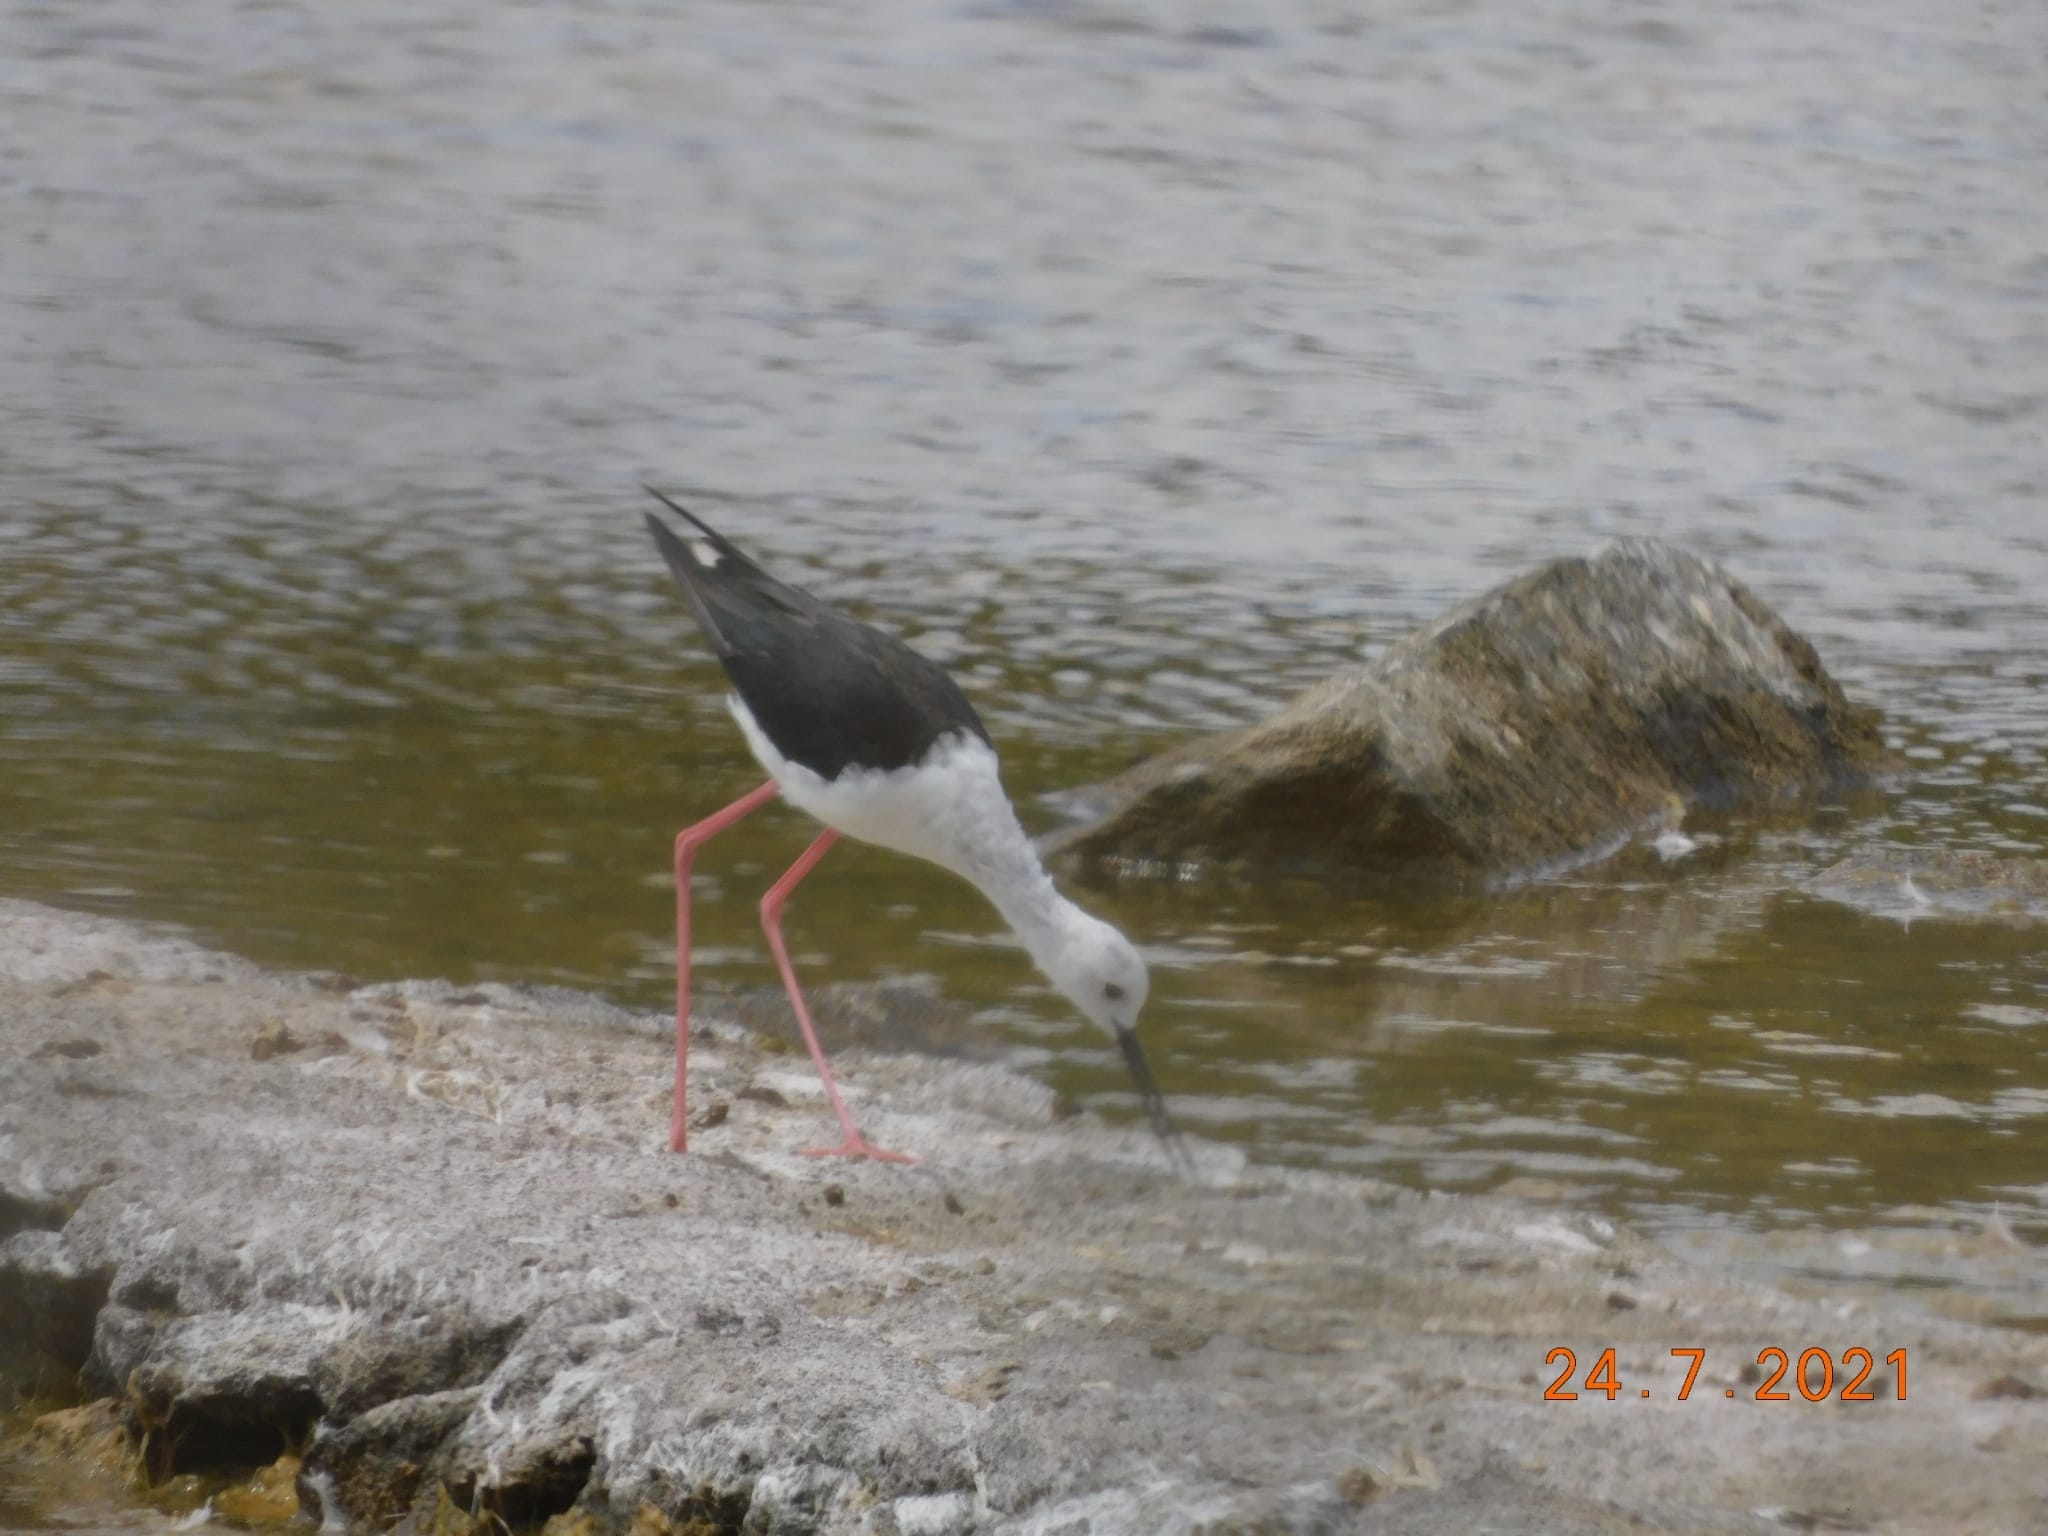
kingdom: Animalia
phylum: Chordata
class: Aves
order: Charadriiformes
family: Recurvirostridae
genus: Himantopus
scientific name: Himantopus himantopus
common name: Black-winged stilt
